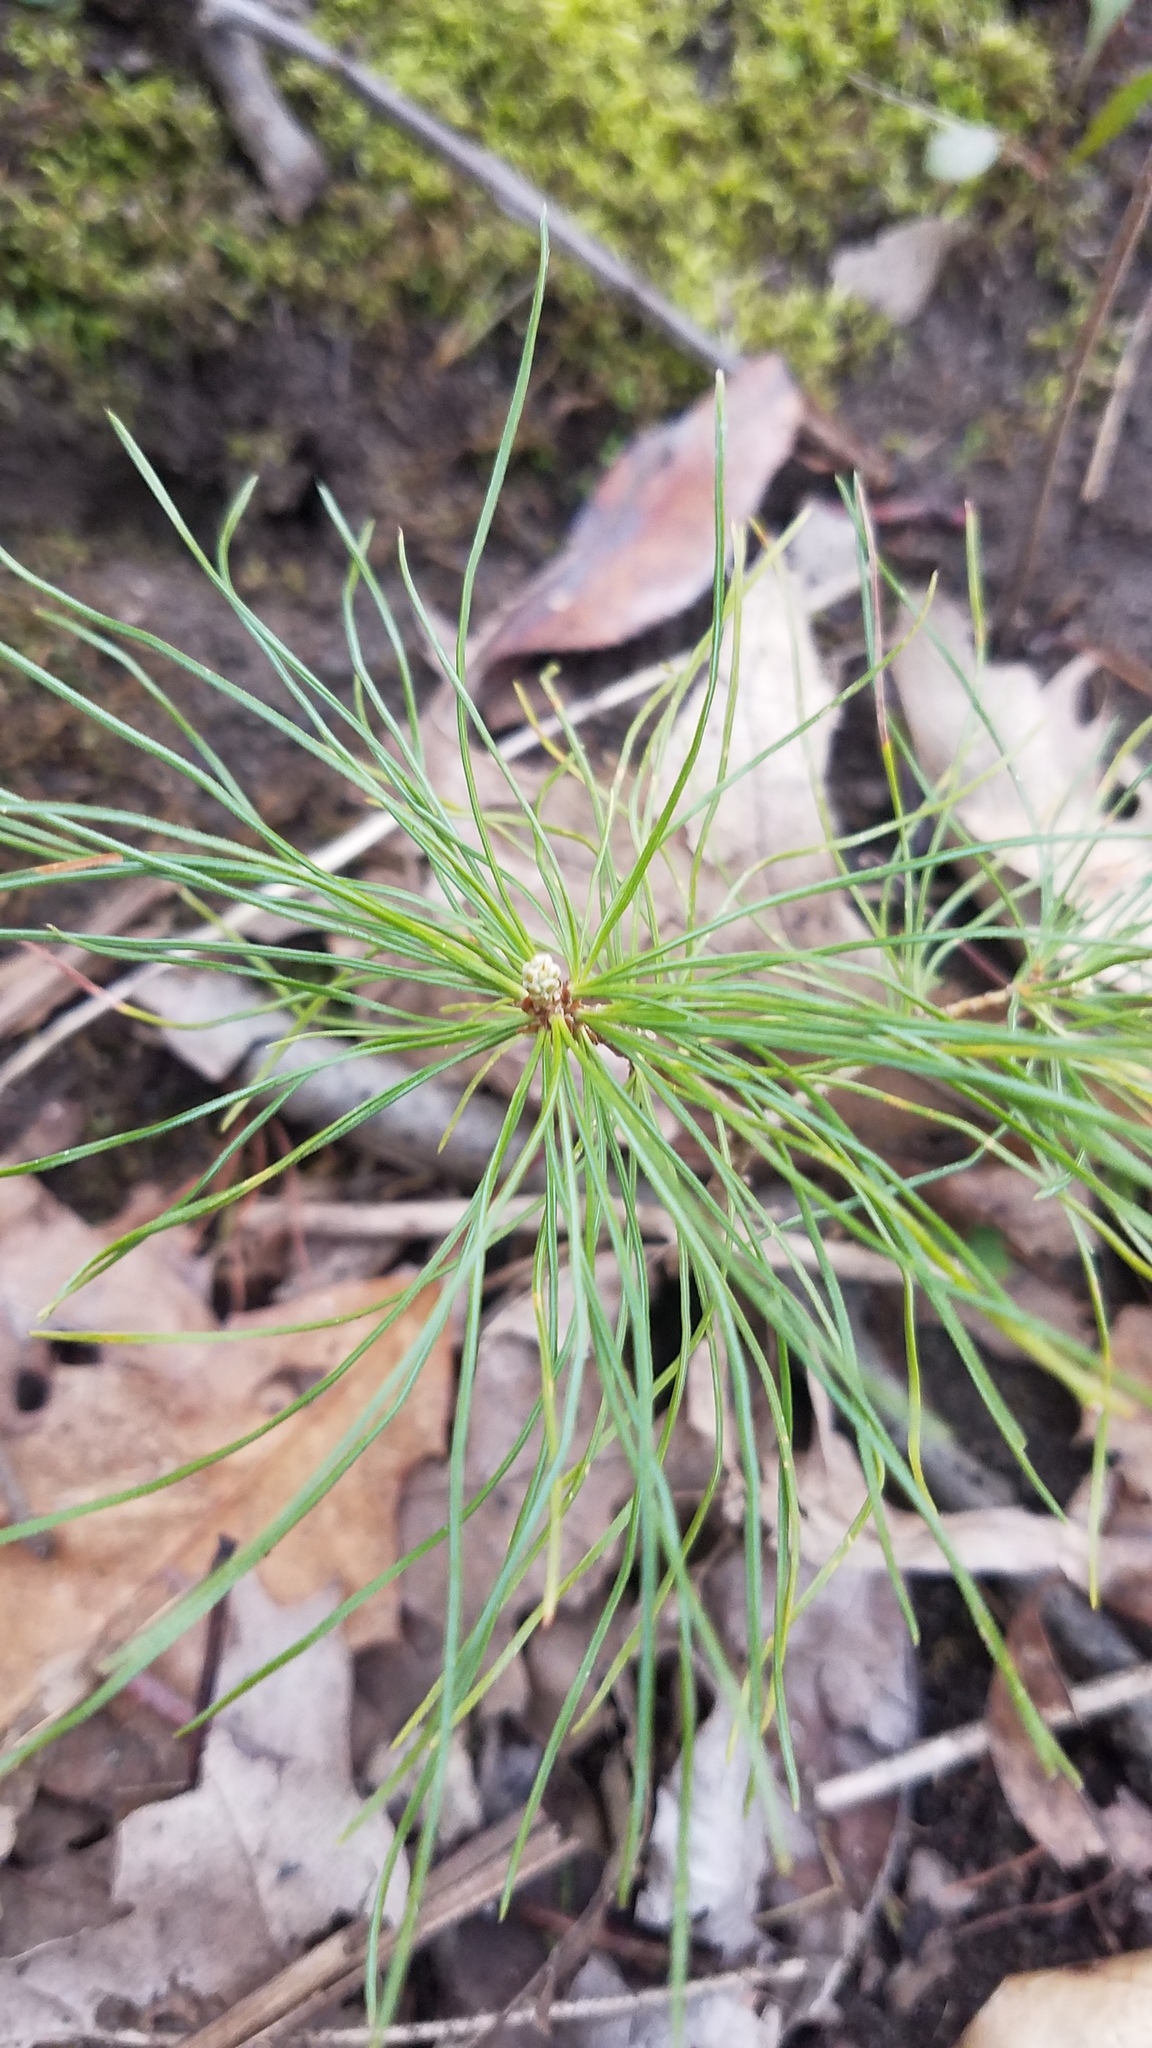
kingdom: Plantae
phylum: Tracheophyta
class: Pinopsida
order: Pinales
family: Pinaceae
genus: Pinus
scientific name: Pinus strobus
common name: Weymouth pine
